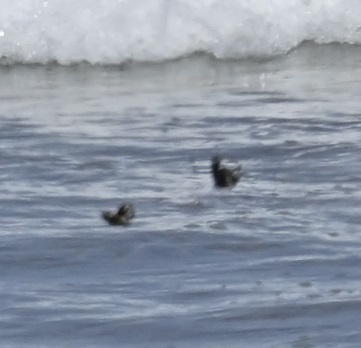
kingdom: Animalia
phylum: Arthropoda
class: Insecta
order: Lepidoptera
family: Nymphalidae
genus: Euploea
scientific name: Euploea core
